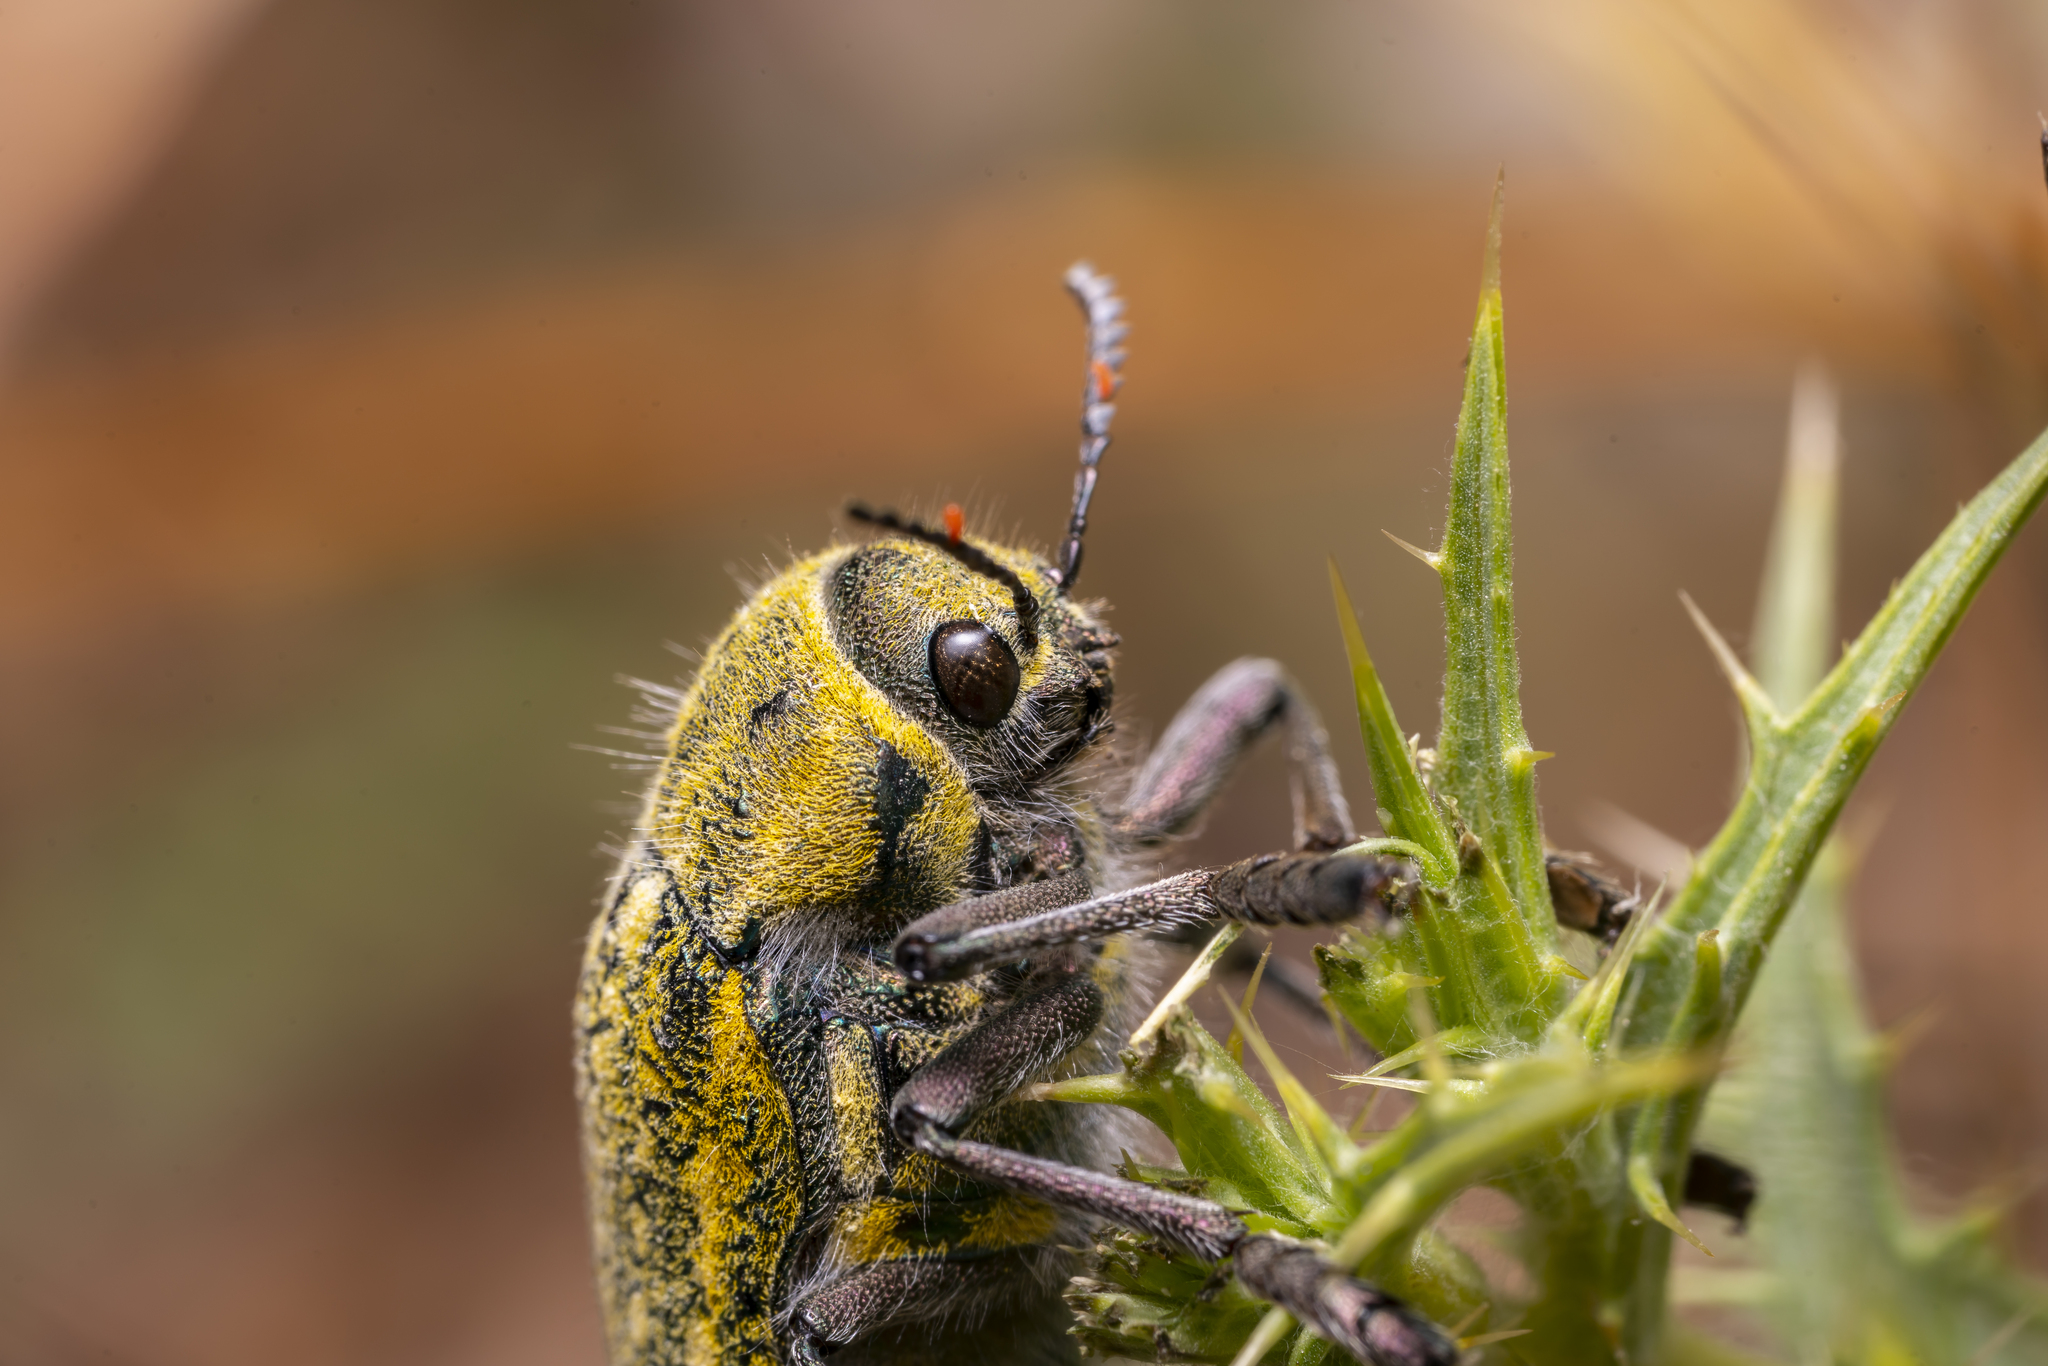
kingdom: Animalia
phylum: Arthropoda
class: Insecta
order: Coleoptera
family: Buprestidae
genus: Julodis
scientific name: Julodis ehrenbergii
